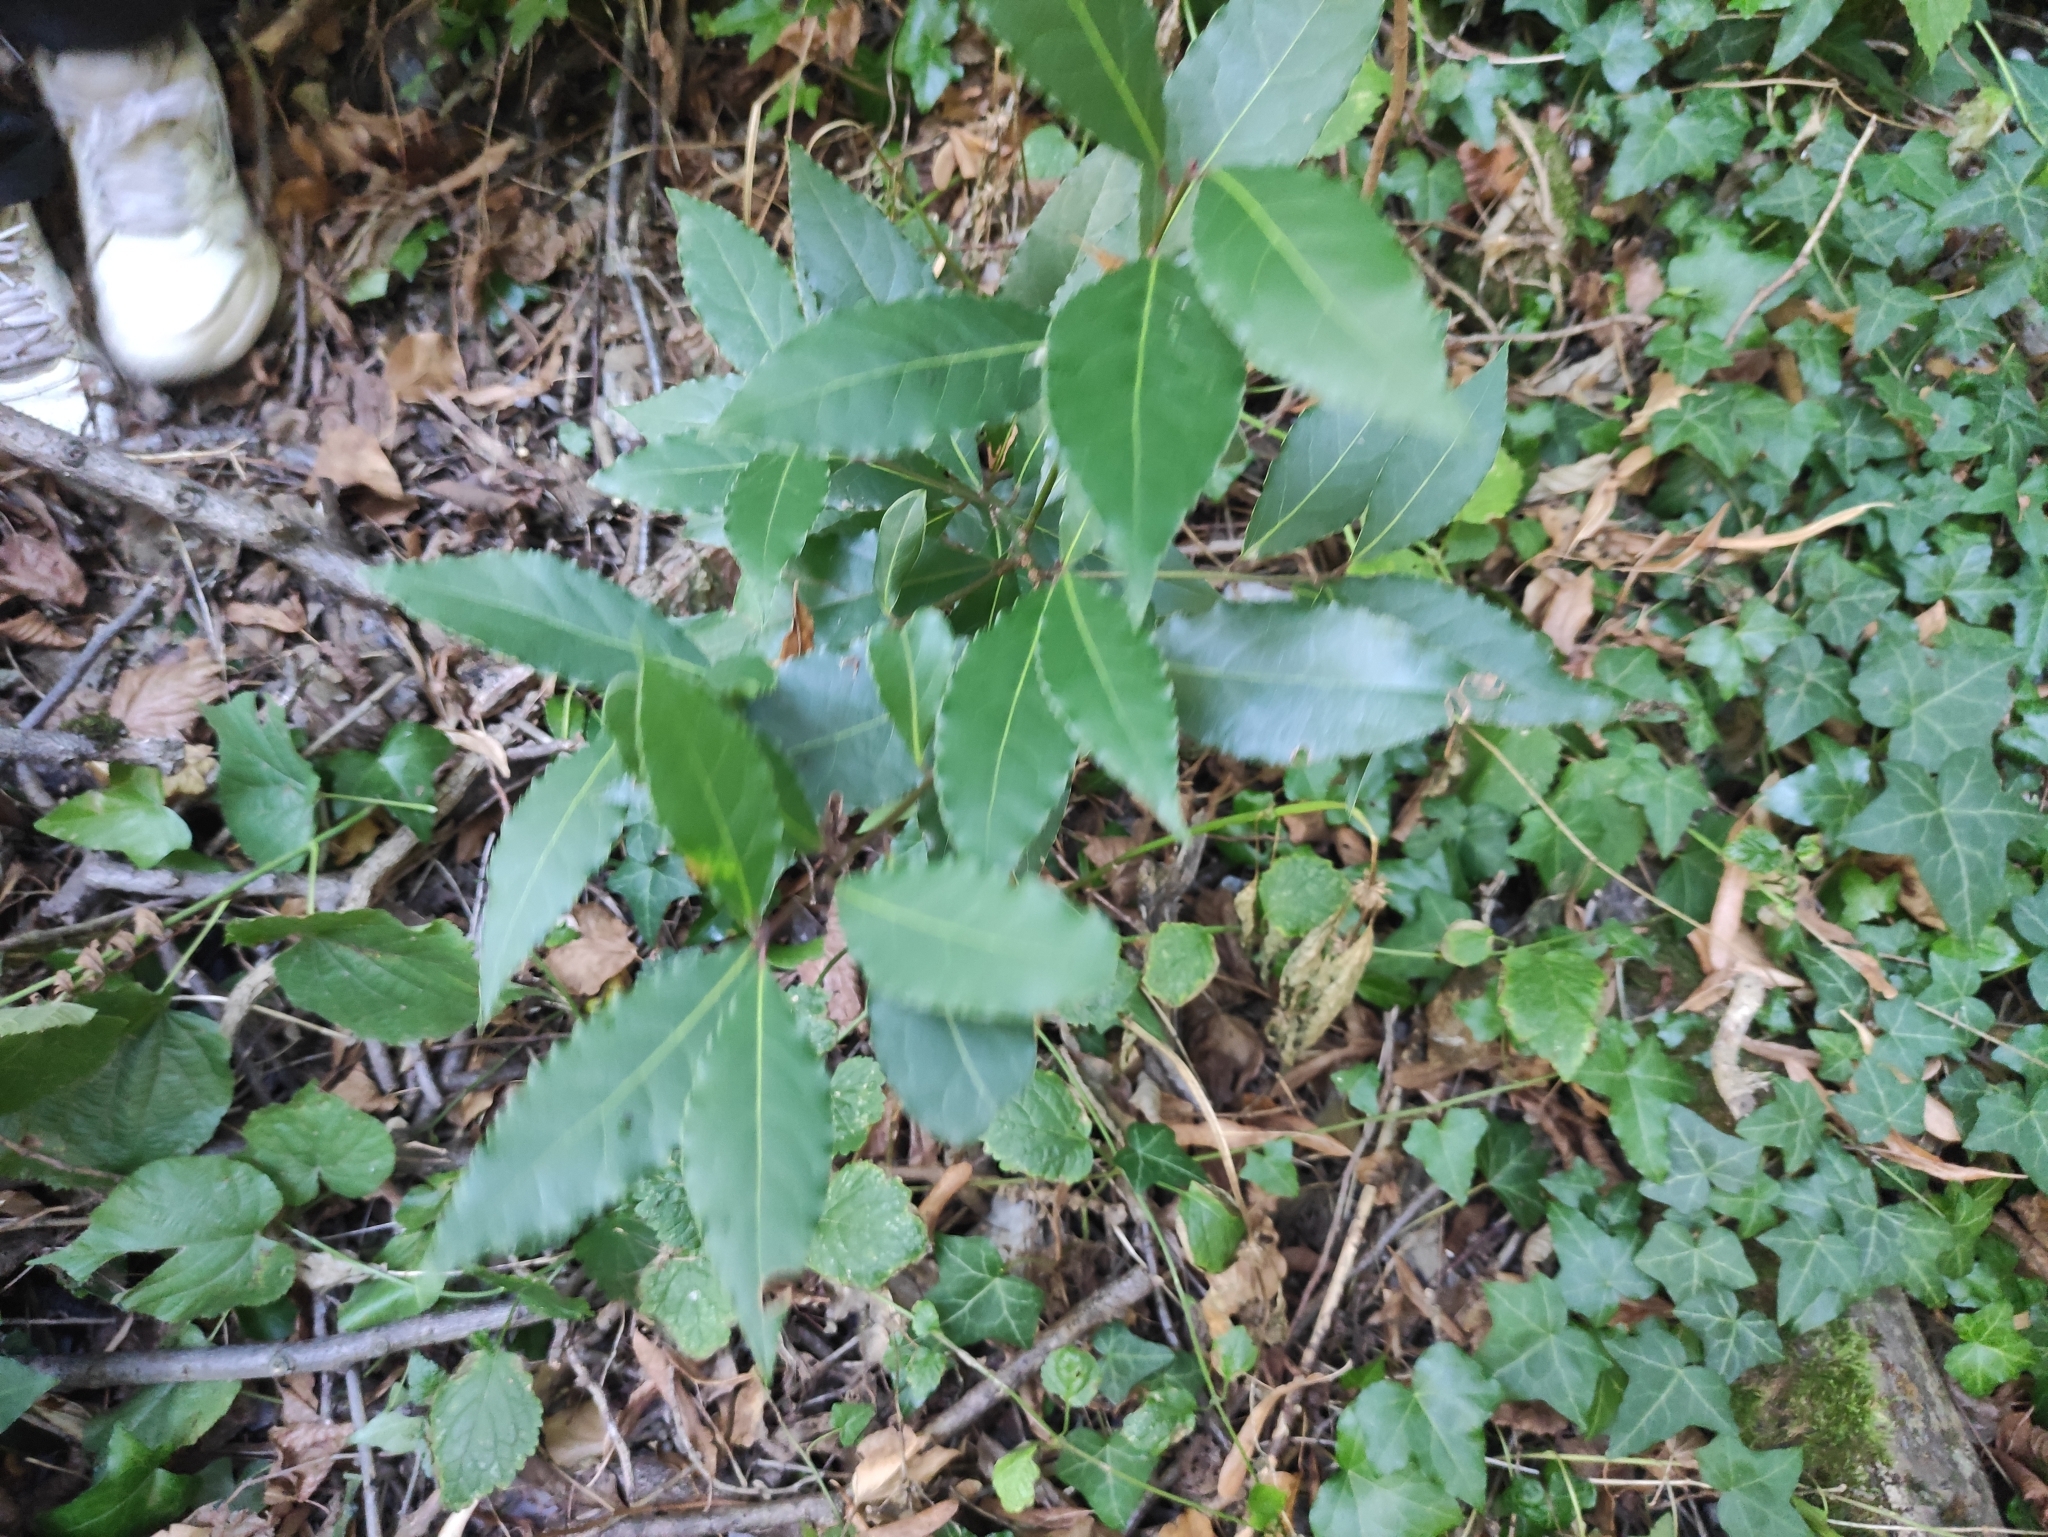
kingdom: Plantae
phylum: Tracheophyta
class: Magnoliopsida
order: Laurales
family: Lauraceae
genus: Laurus
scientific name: Laurus nobilis
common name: Bay
